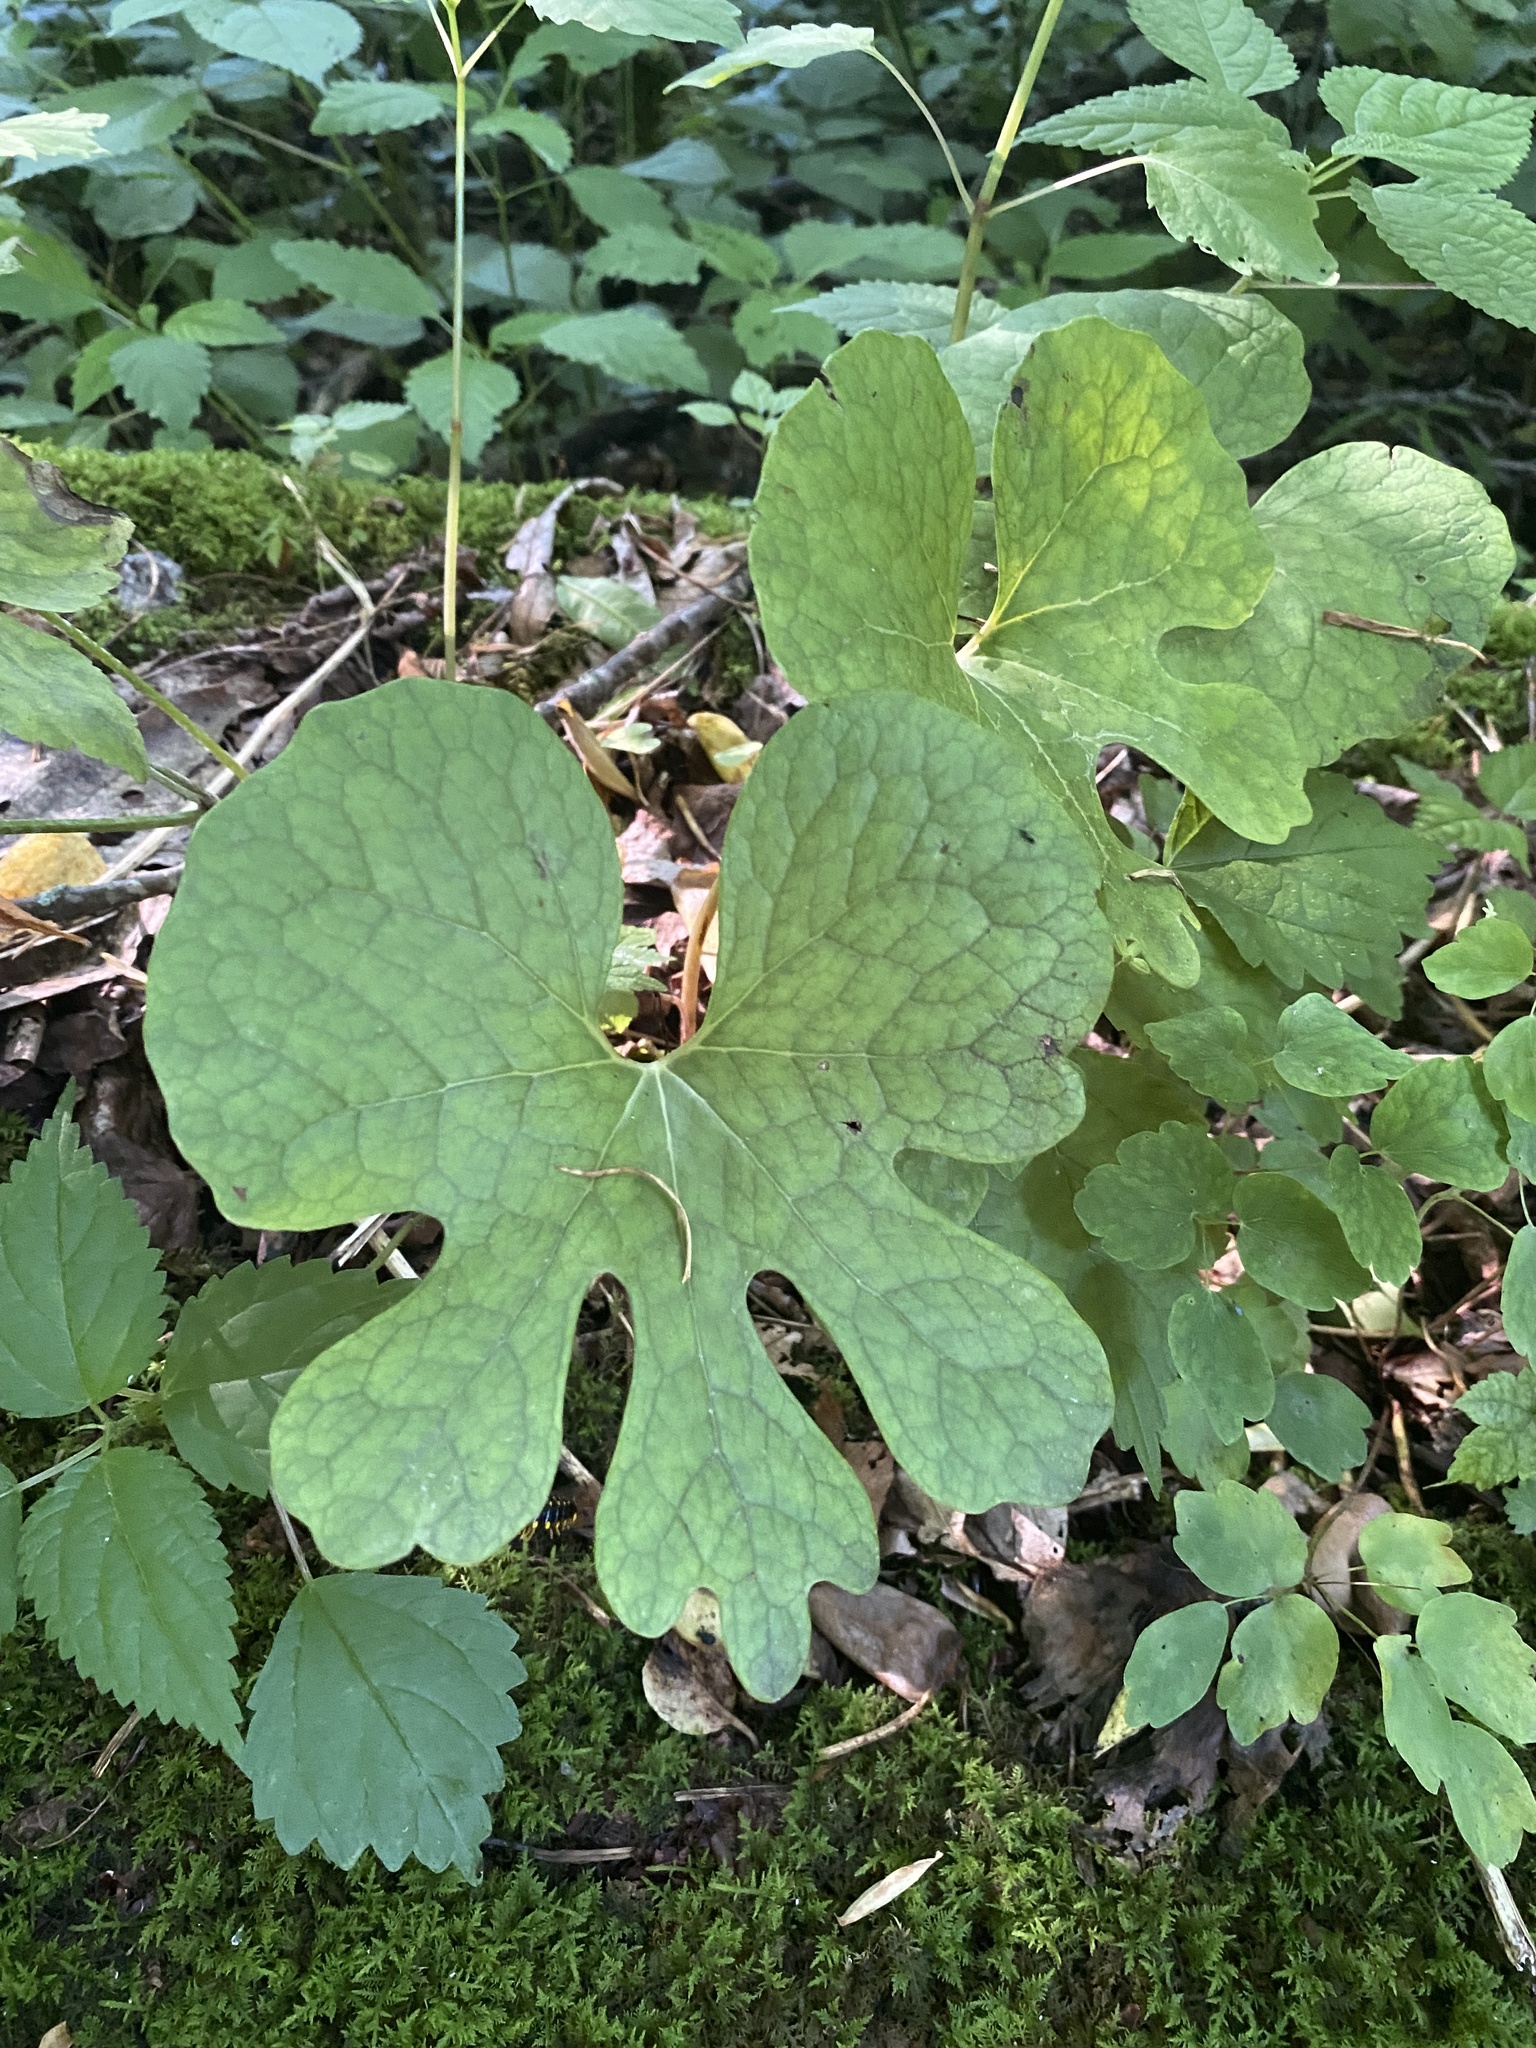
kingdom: Plantae
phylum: Tracheophyta
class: Magnoliopsida
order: Ranunculales
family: Papaveraceae
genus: Sanguinaria
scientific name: Sanguinaria canadensis
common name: Bloodroot
